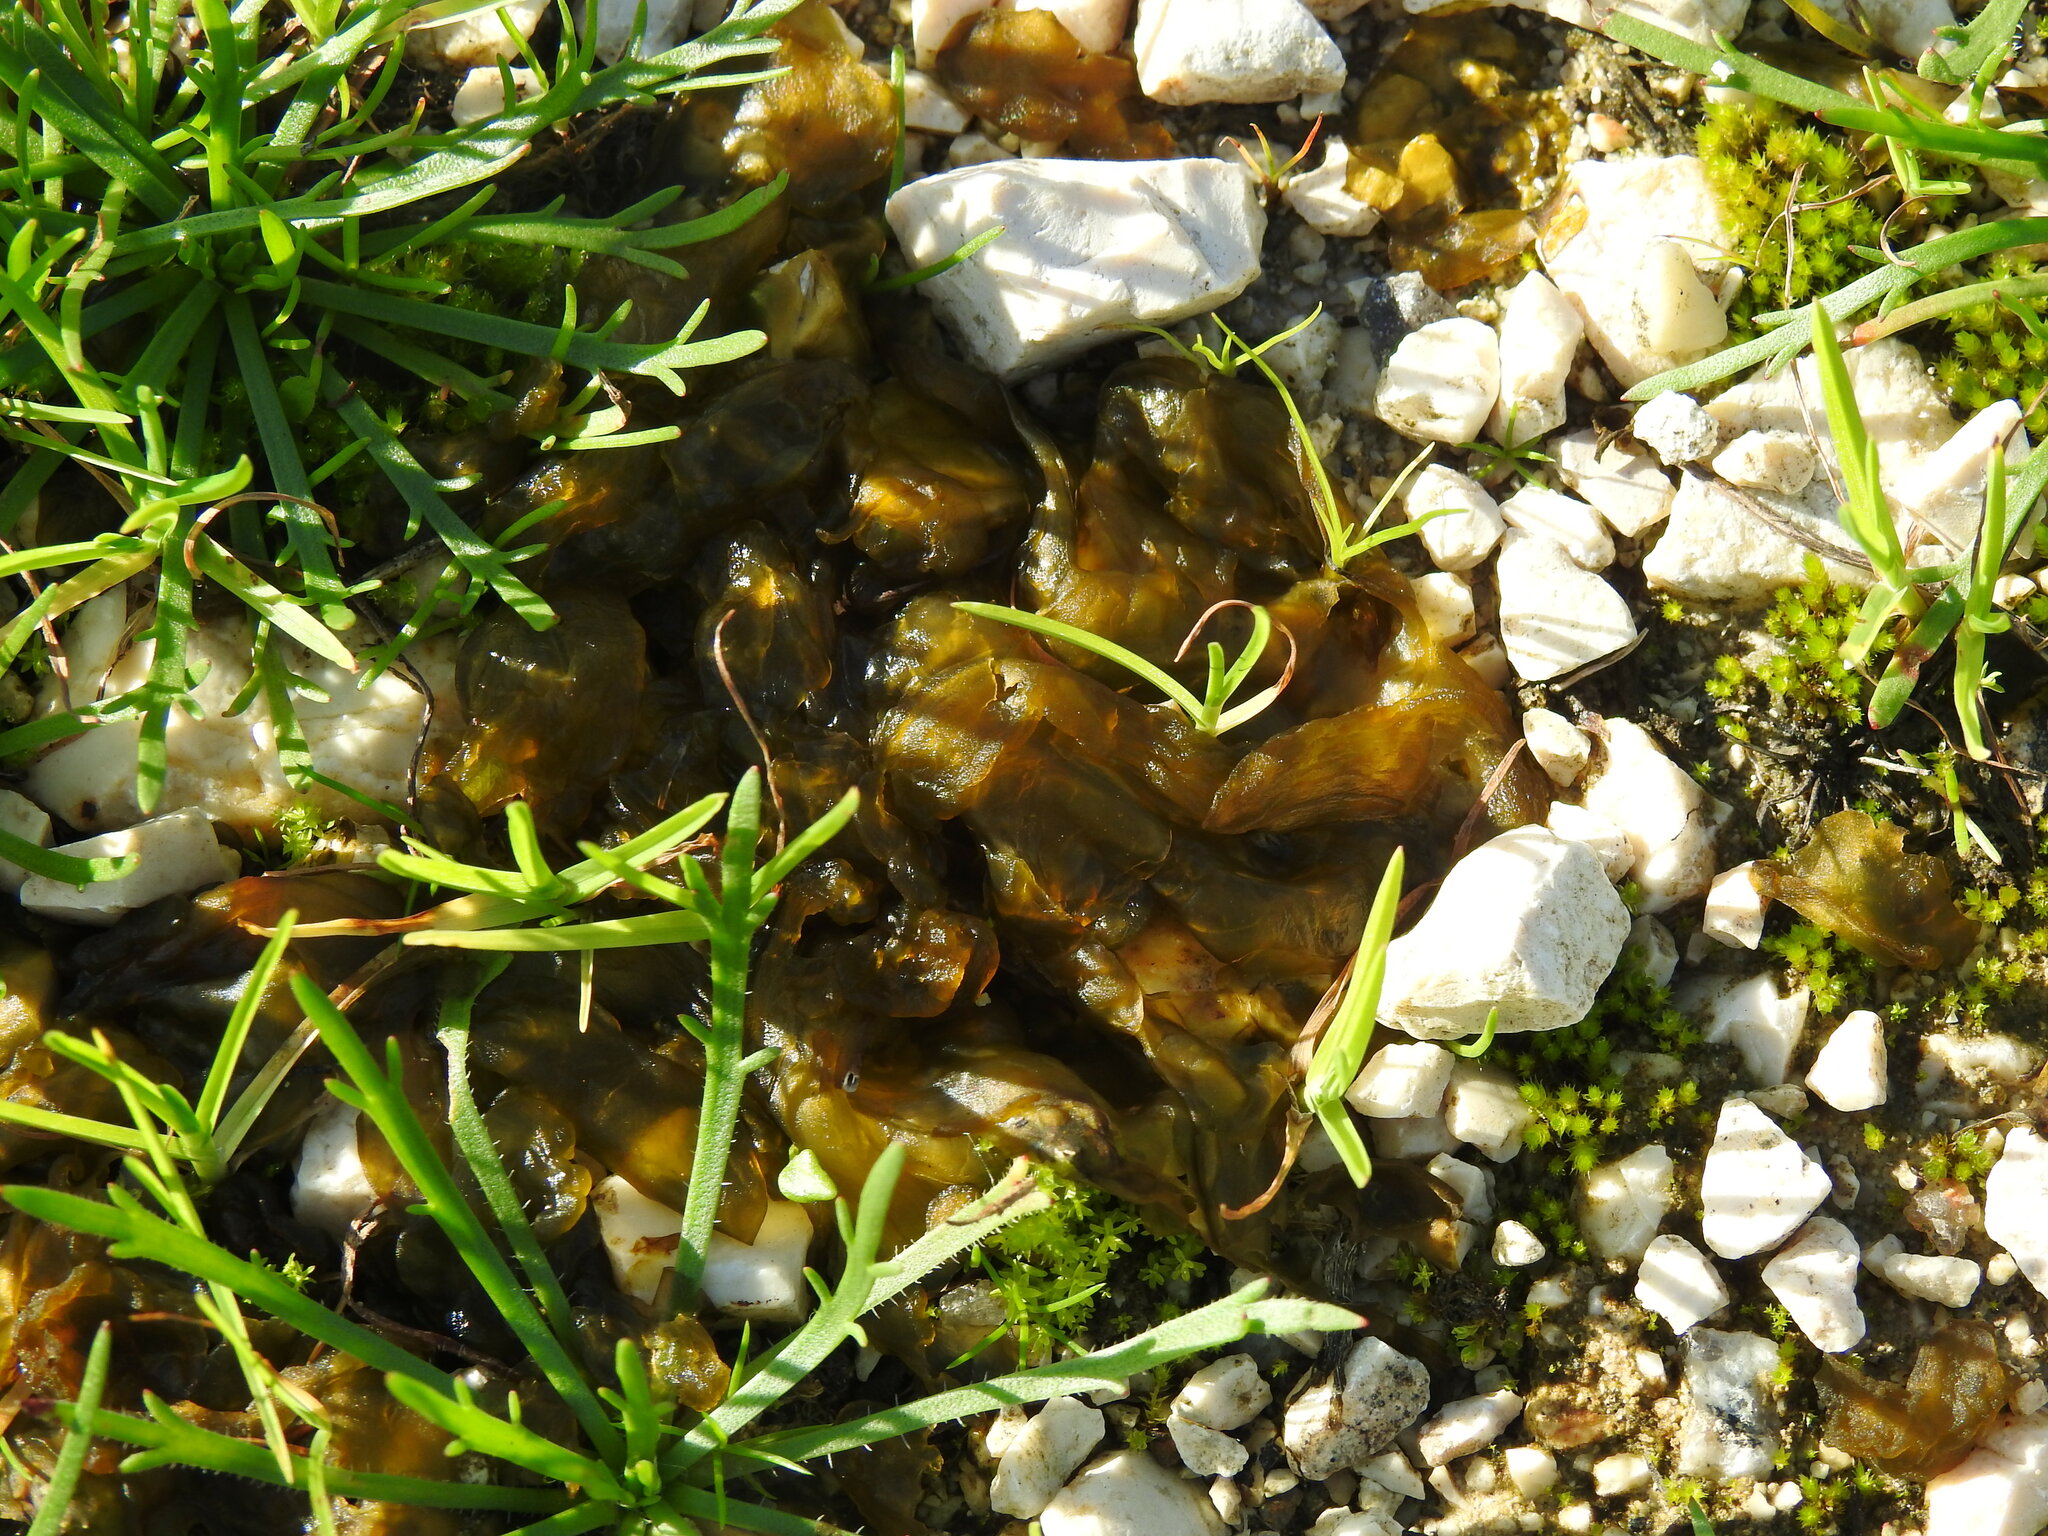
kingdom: Bacteria
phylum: Cyanobacteria
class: Cyanobacteriia
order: Cyanobacteriales
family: Nostocaceae
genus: Nostoc
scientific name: Nostoc commune
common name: Star jelly
